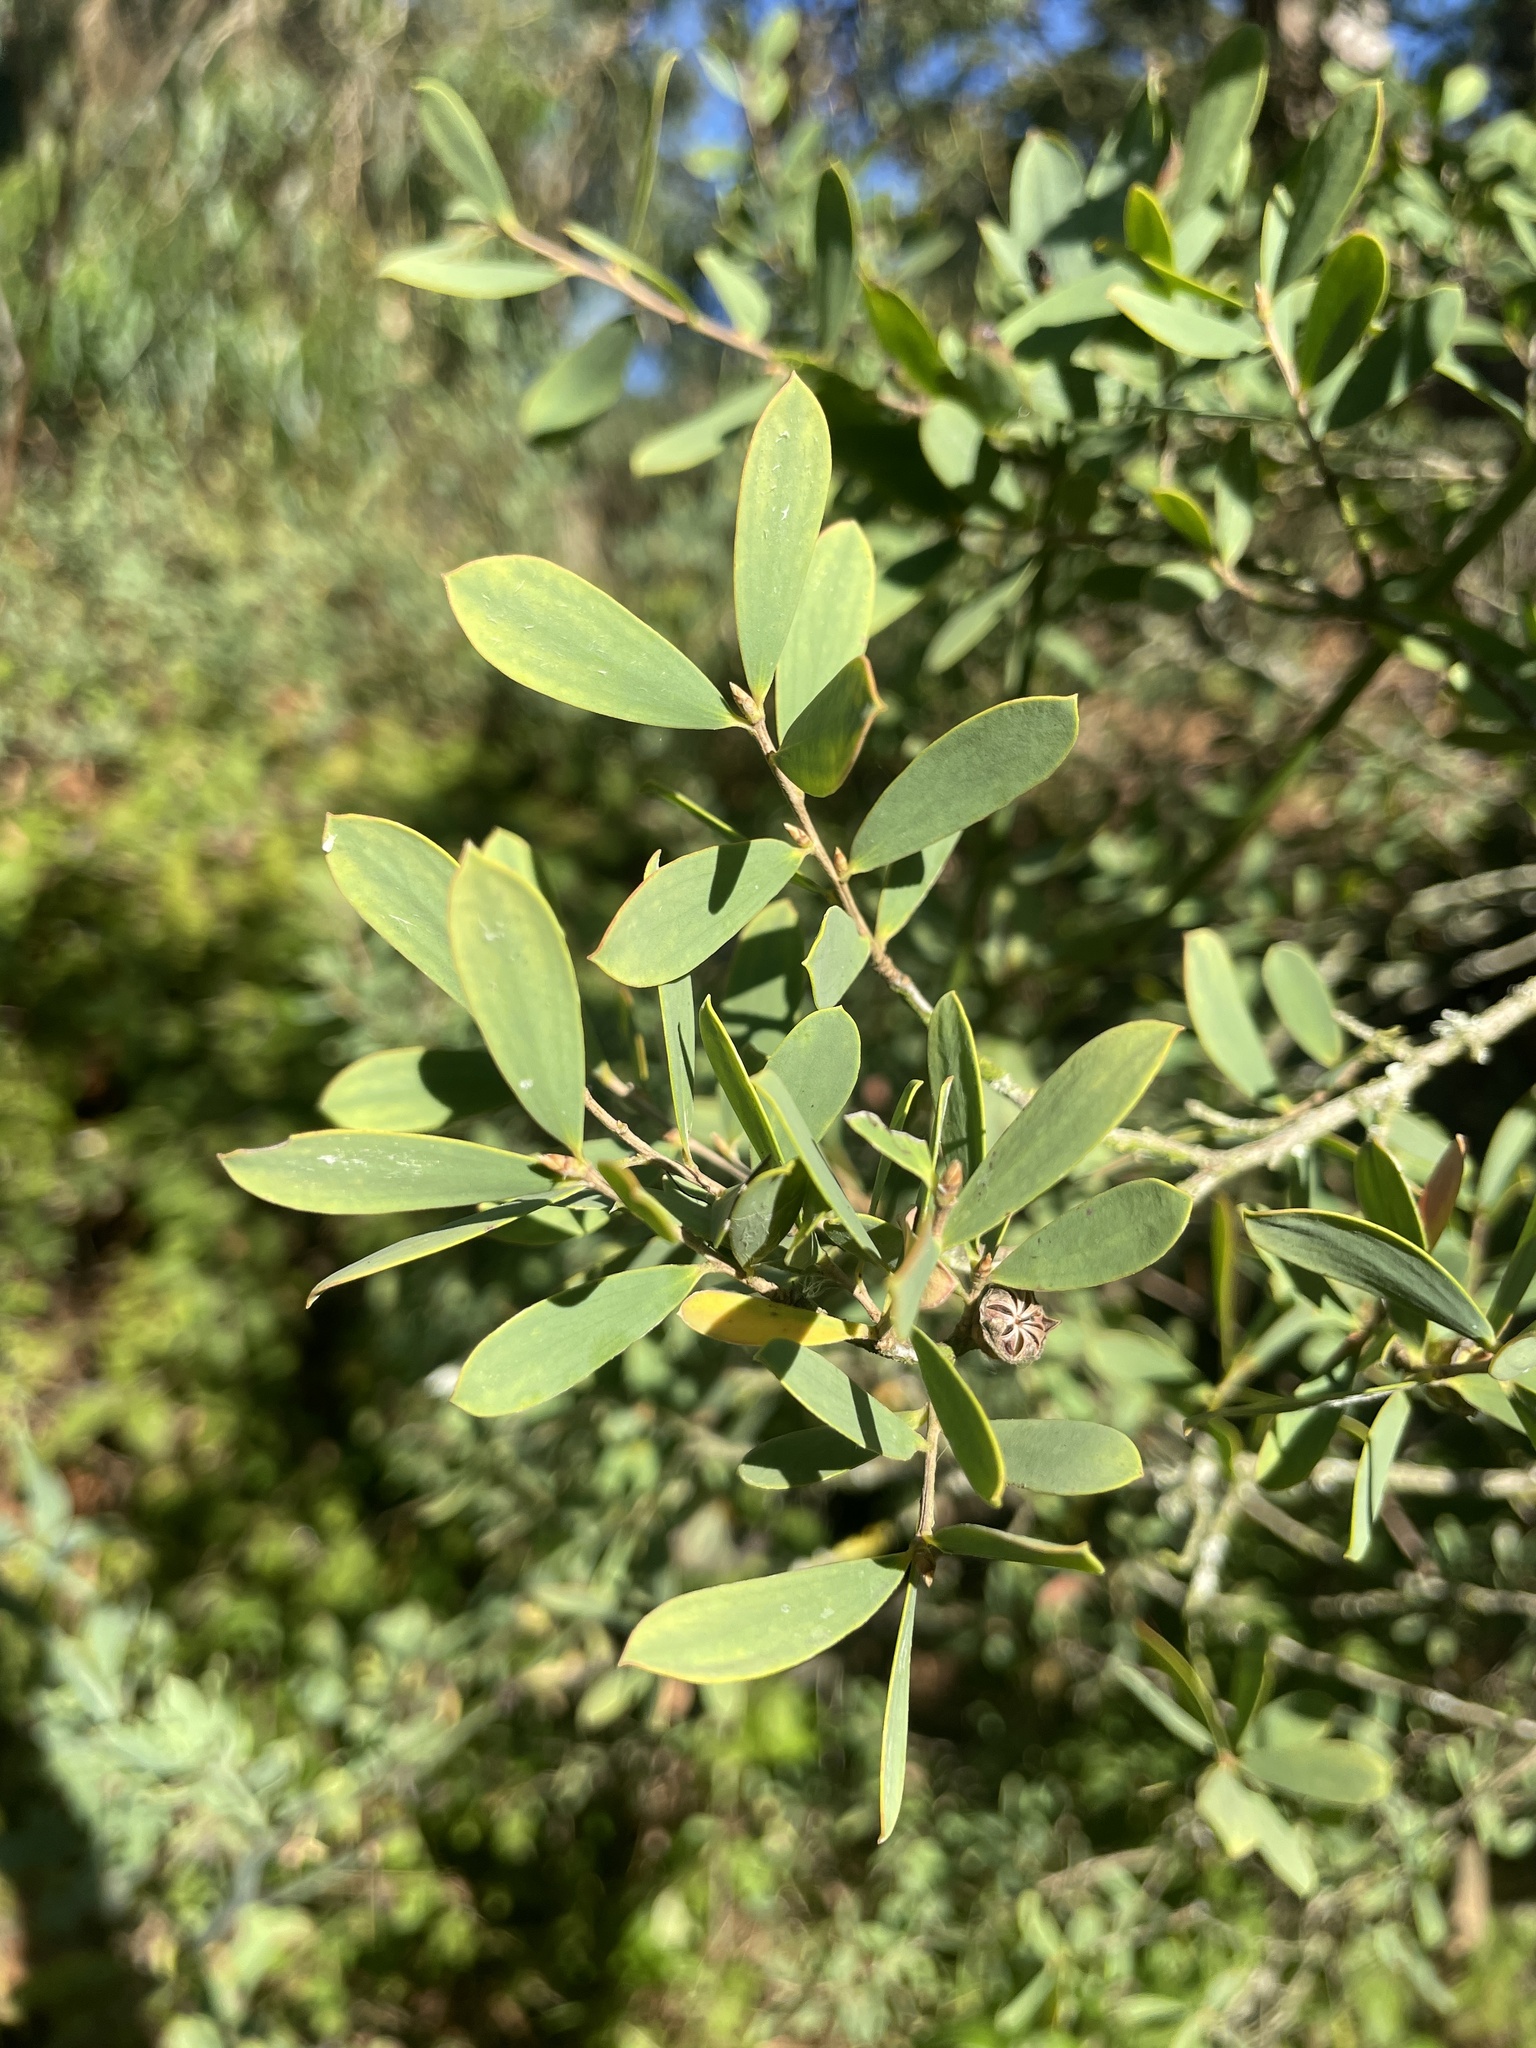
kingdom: Plantae
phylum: Tracheophyta
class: Magnoliopsida
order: Myrtales
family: Myrtaceae
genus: Leptospermum
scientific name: Leptospermum laevigatum
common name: Australian teatree
